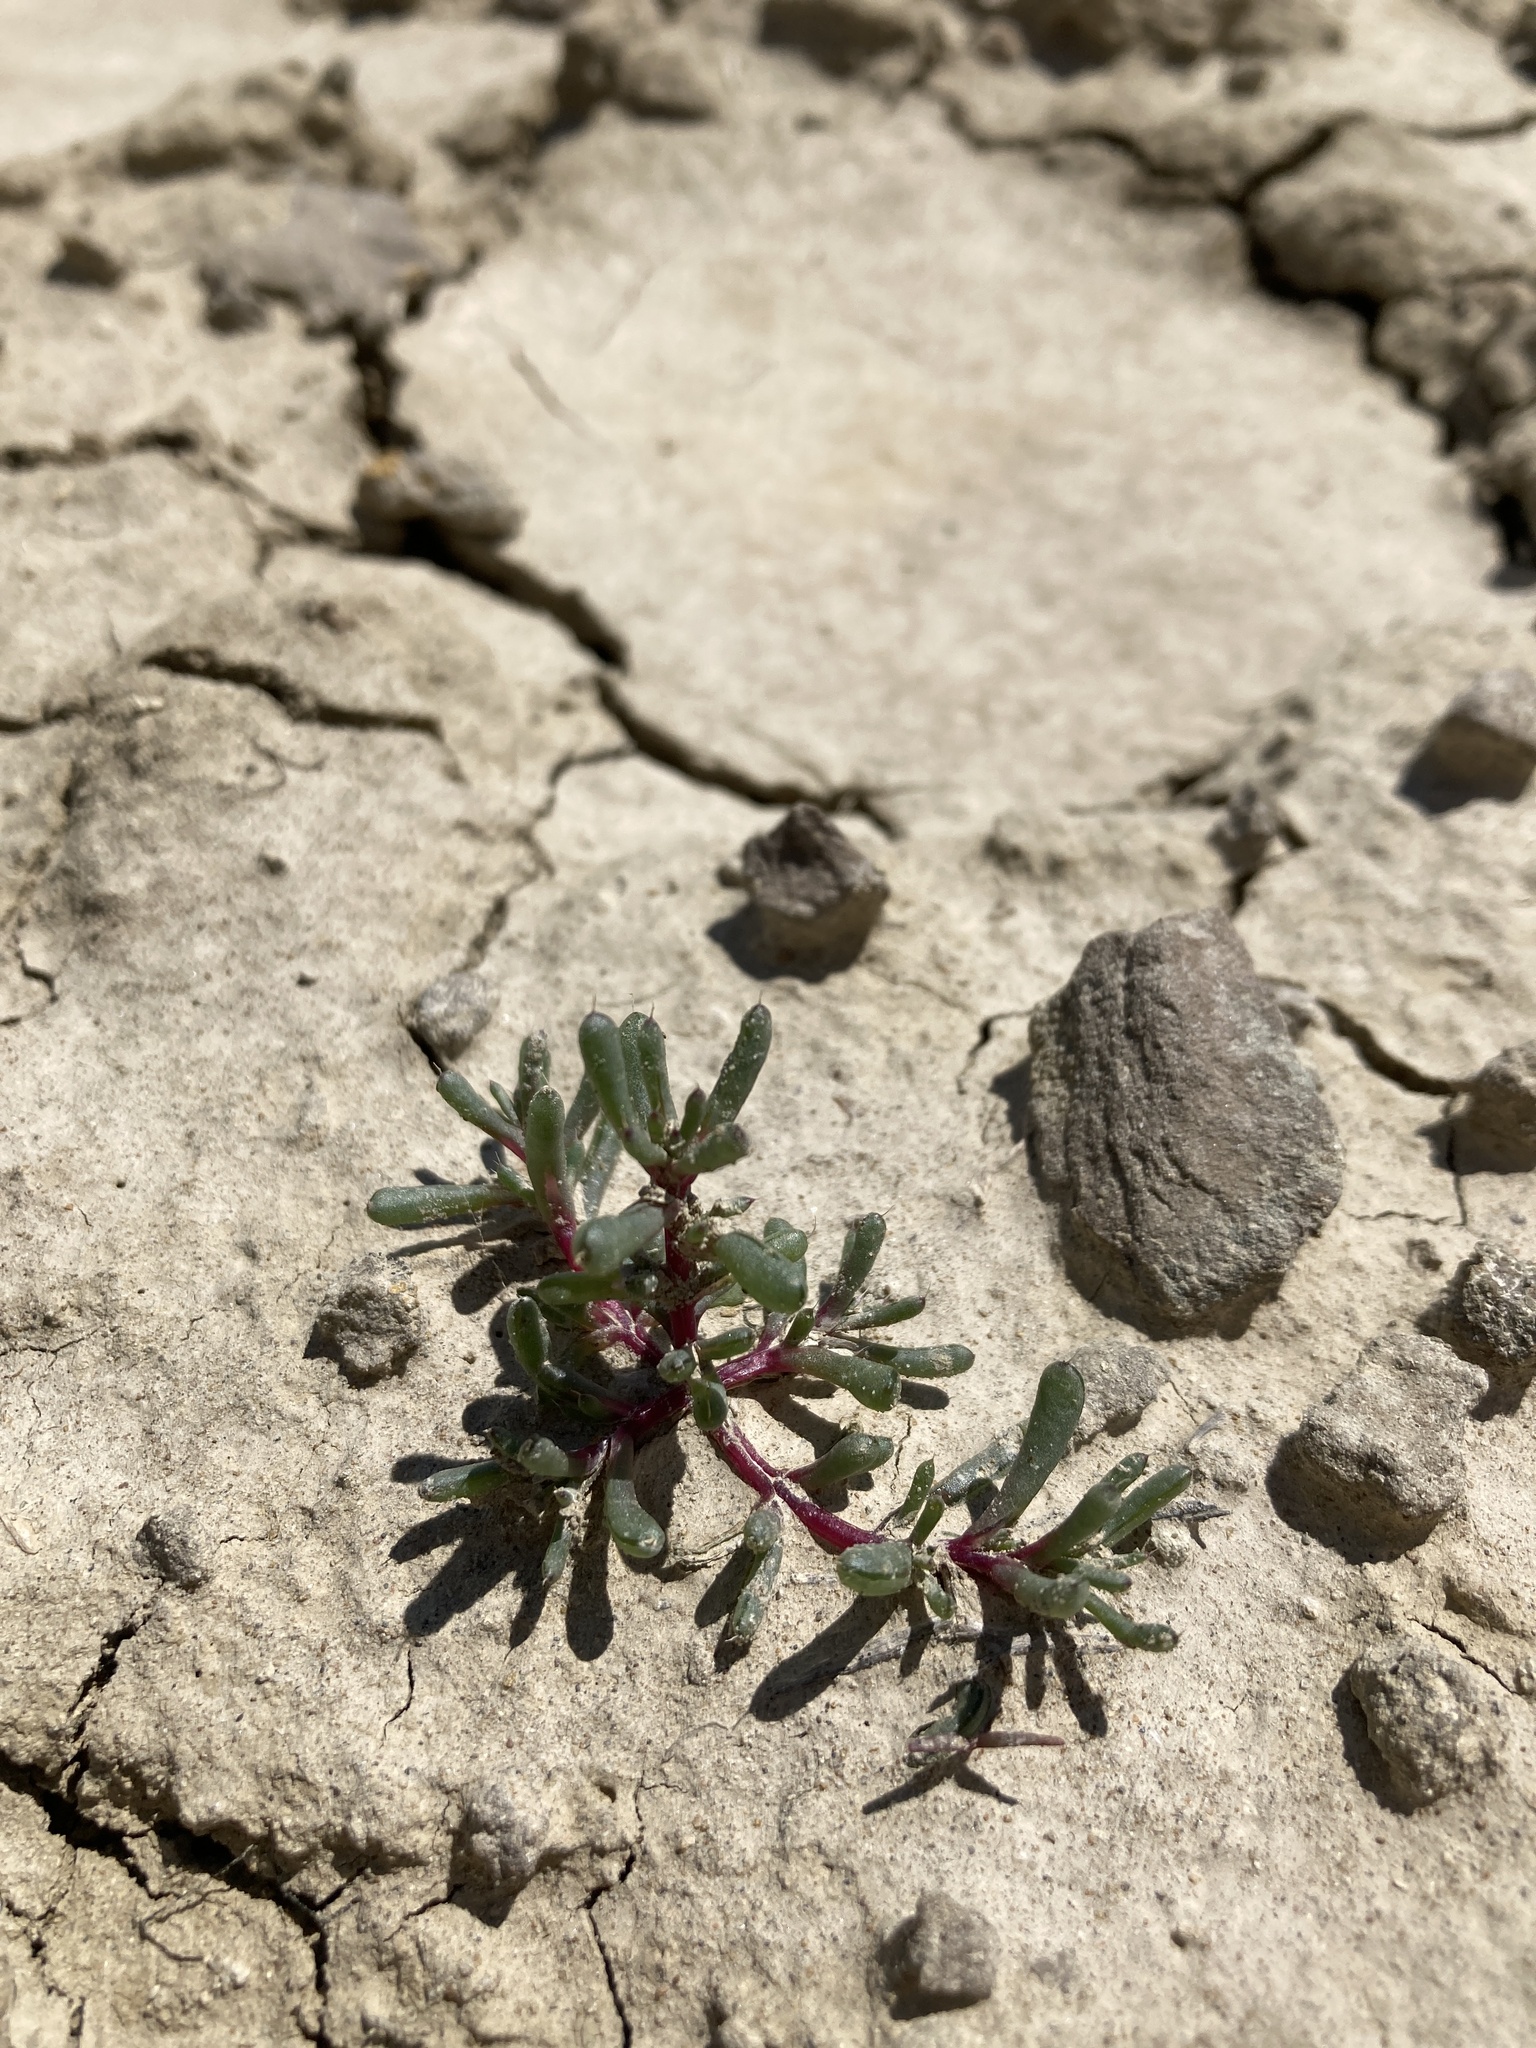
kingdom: Plantae
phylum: Tracheophyta
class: Magnoliopsida
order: Caryophyllales
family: Amaranthaceae
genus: Halogeton
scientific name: Halogeton glomeratus
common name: Saltlover
